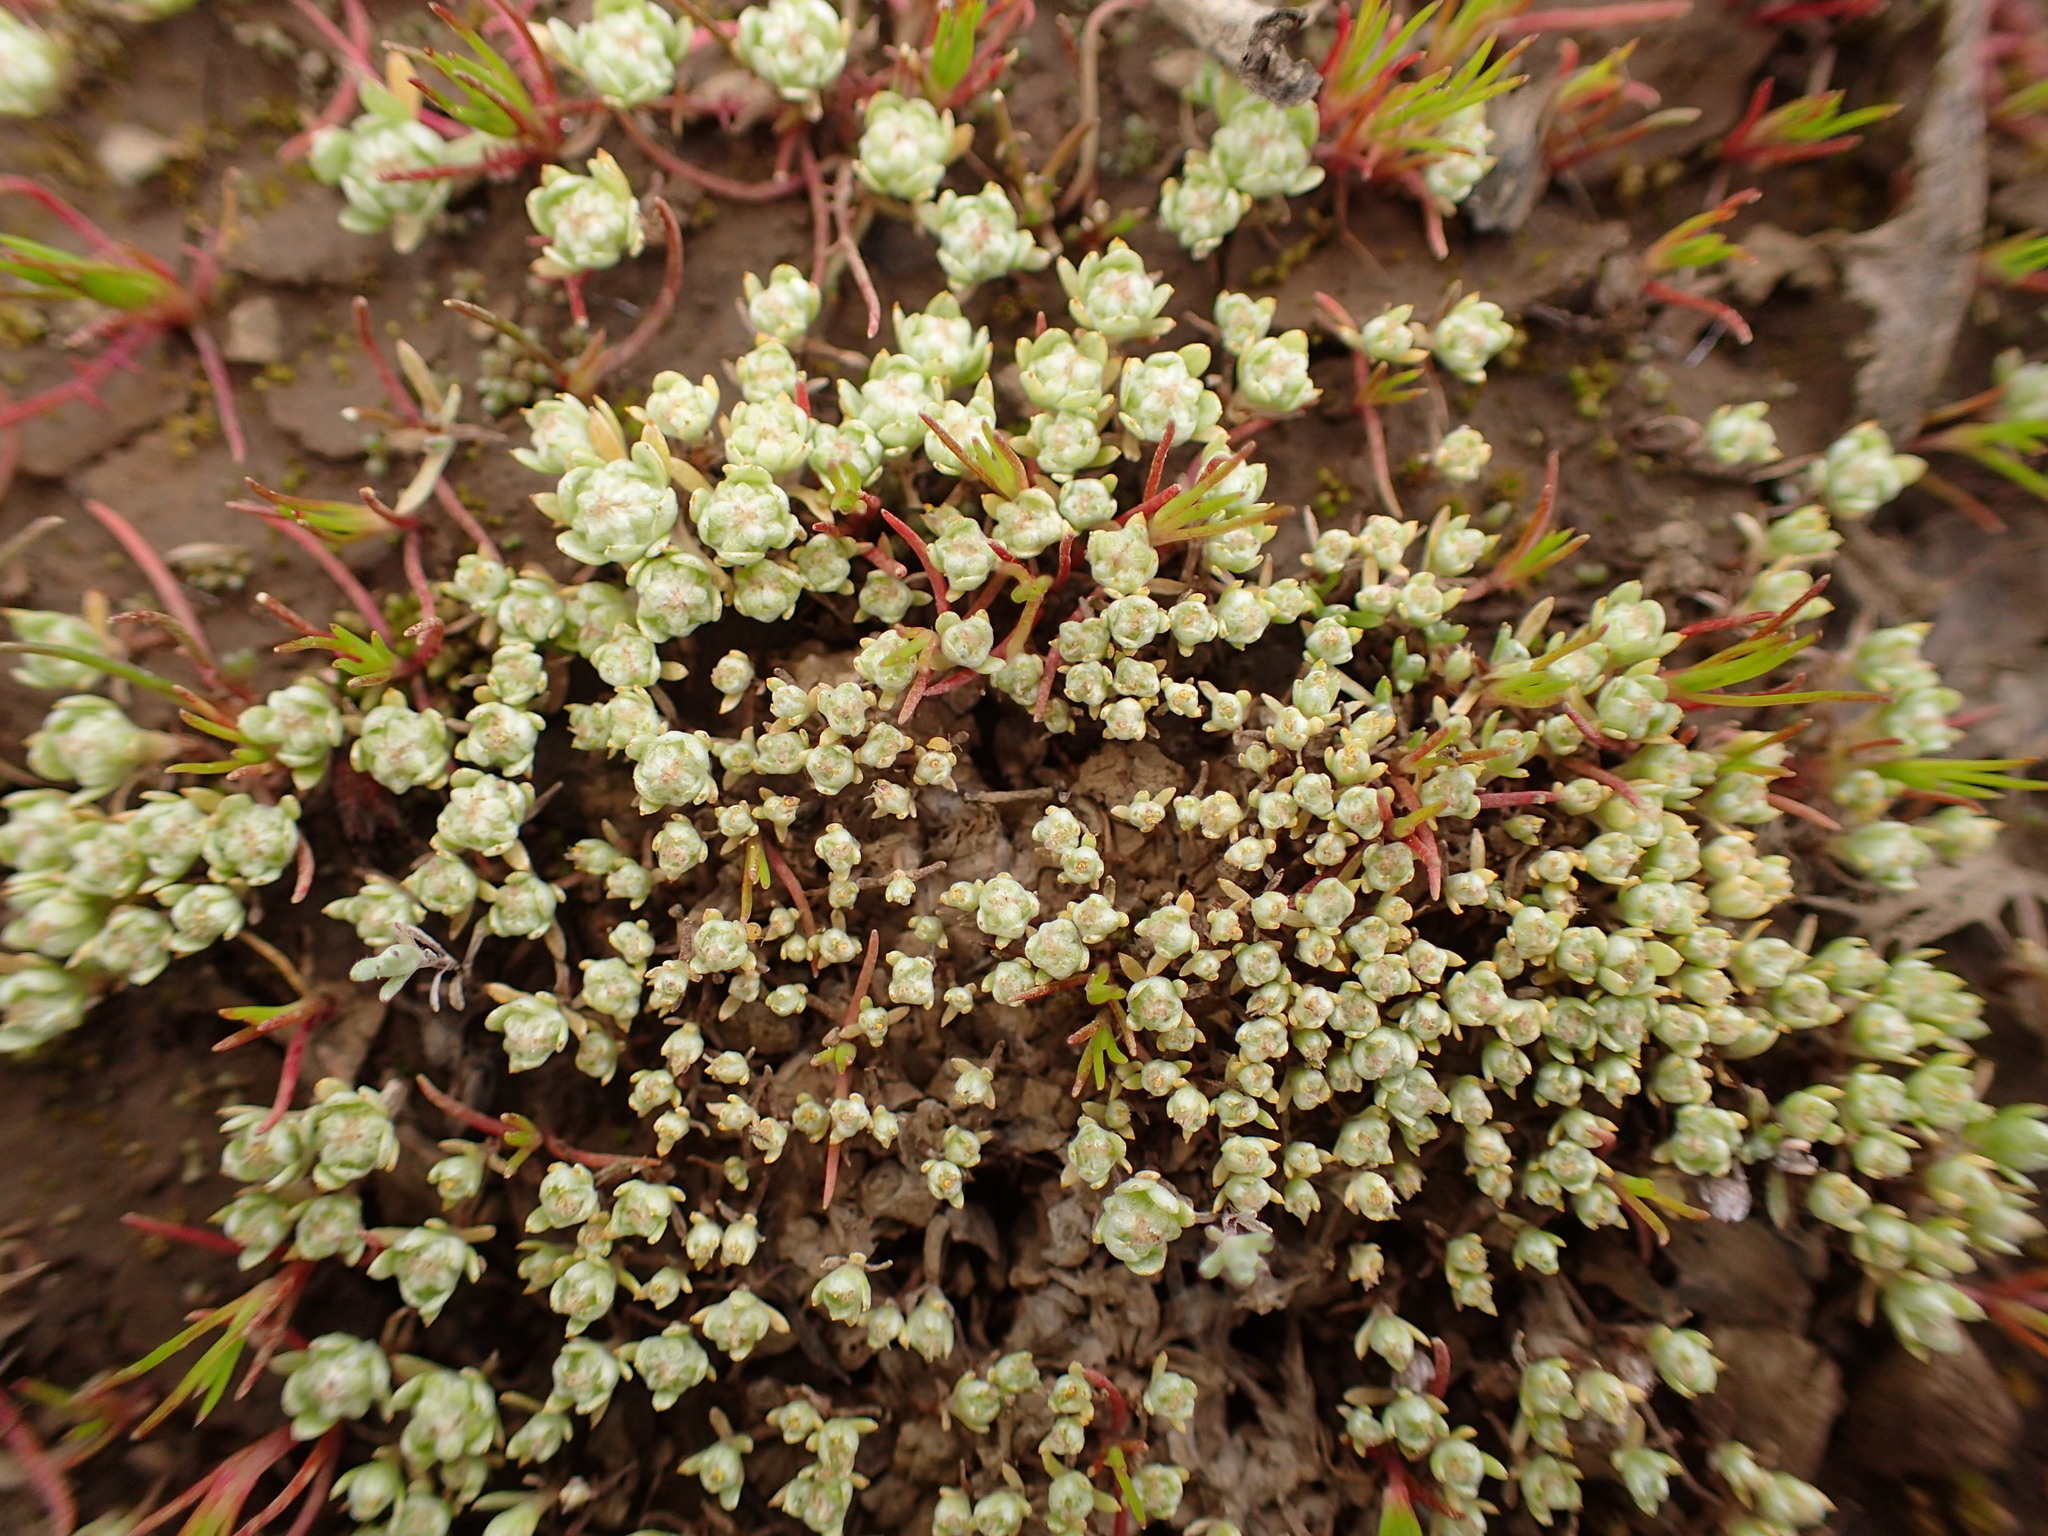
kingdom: Plantae
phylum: Tracheophyta
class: Magnoliopsida
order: Asterales
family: Asteraceae
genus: Psilocarphus
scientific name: Psilocarphus tenellus
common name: Slender woolly-marbles
